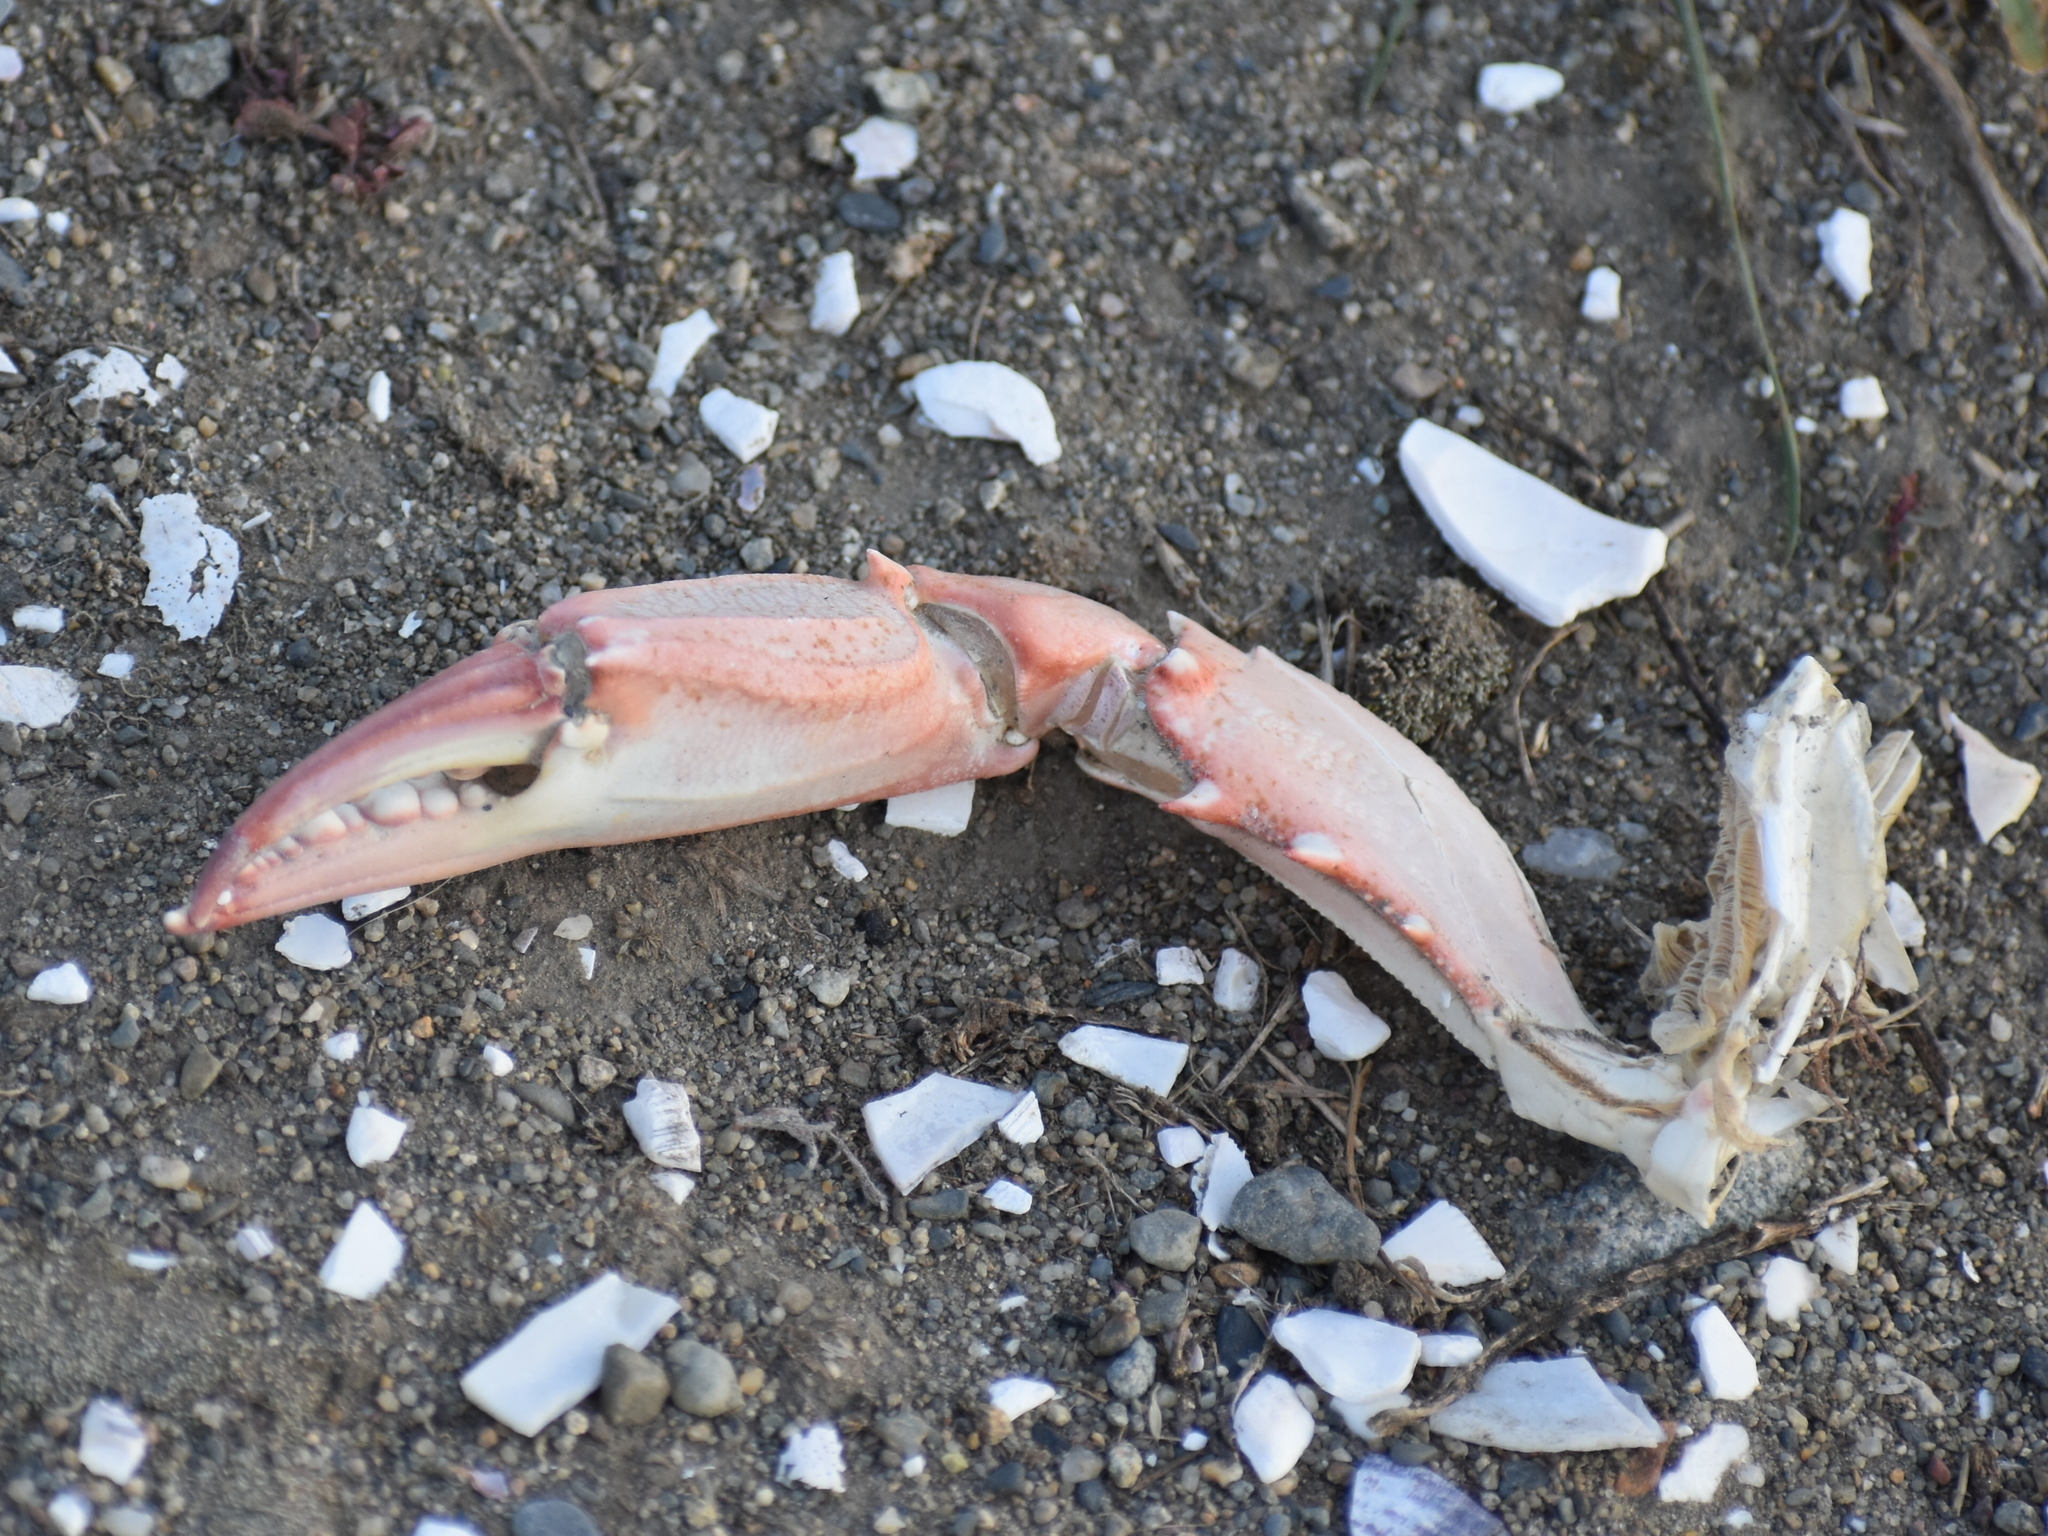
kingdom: Animalia
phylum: Arthropoda
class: Malacostraca
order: Decapoda
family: Portunidae
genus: Callinectes
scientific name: Callinectes sapidus
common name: Blue crab
